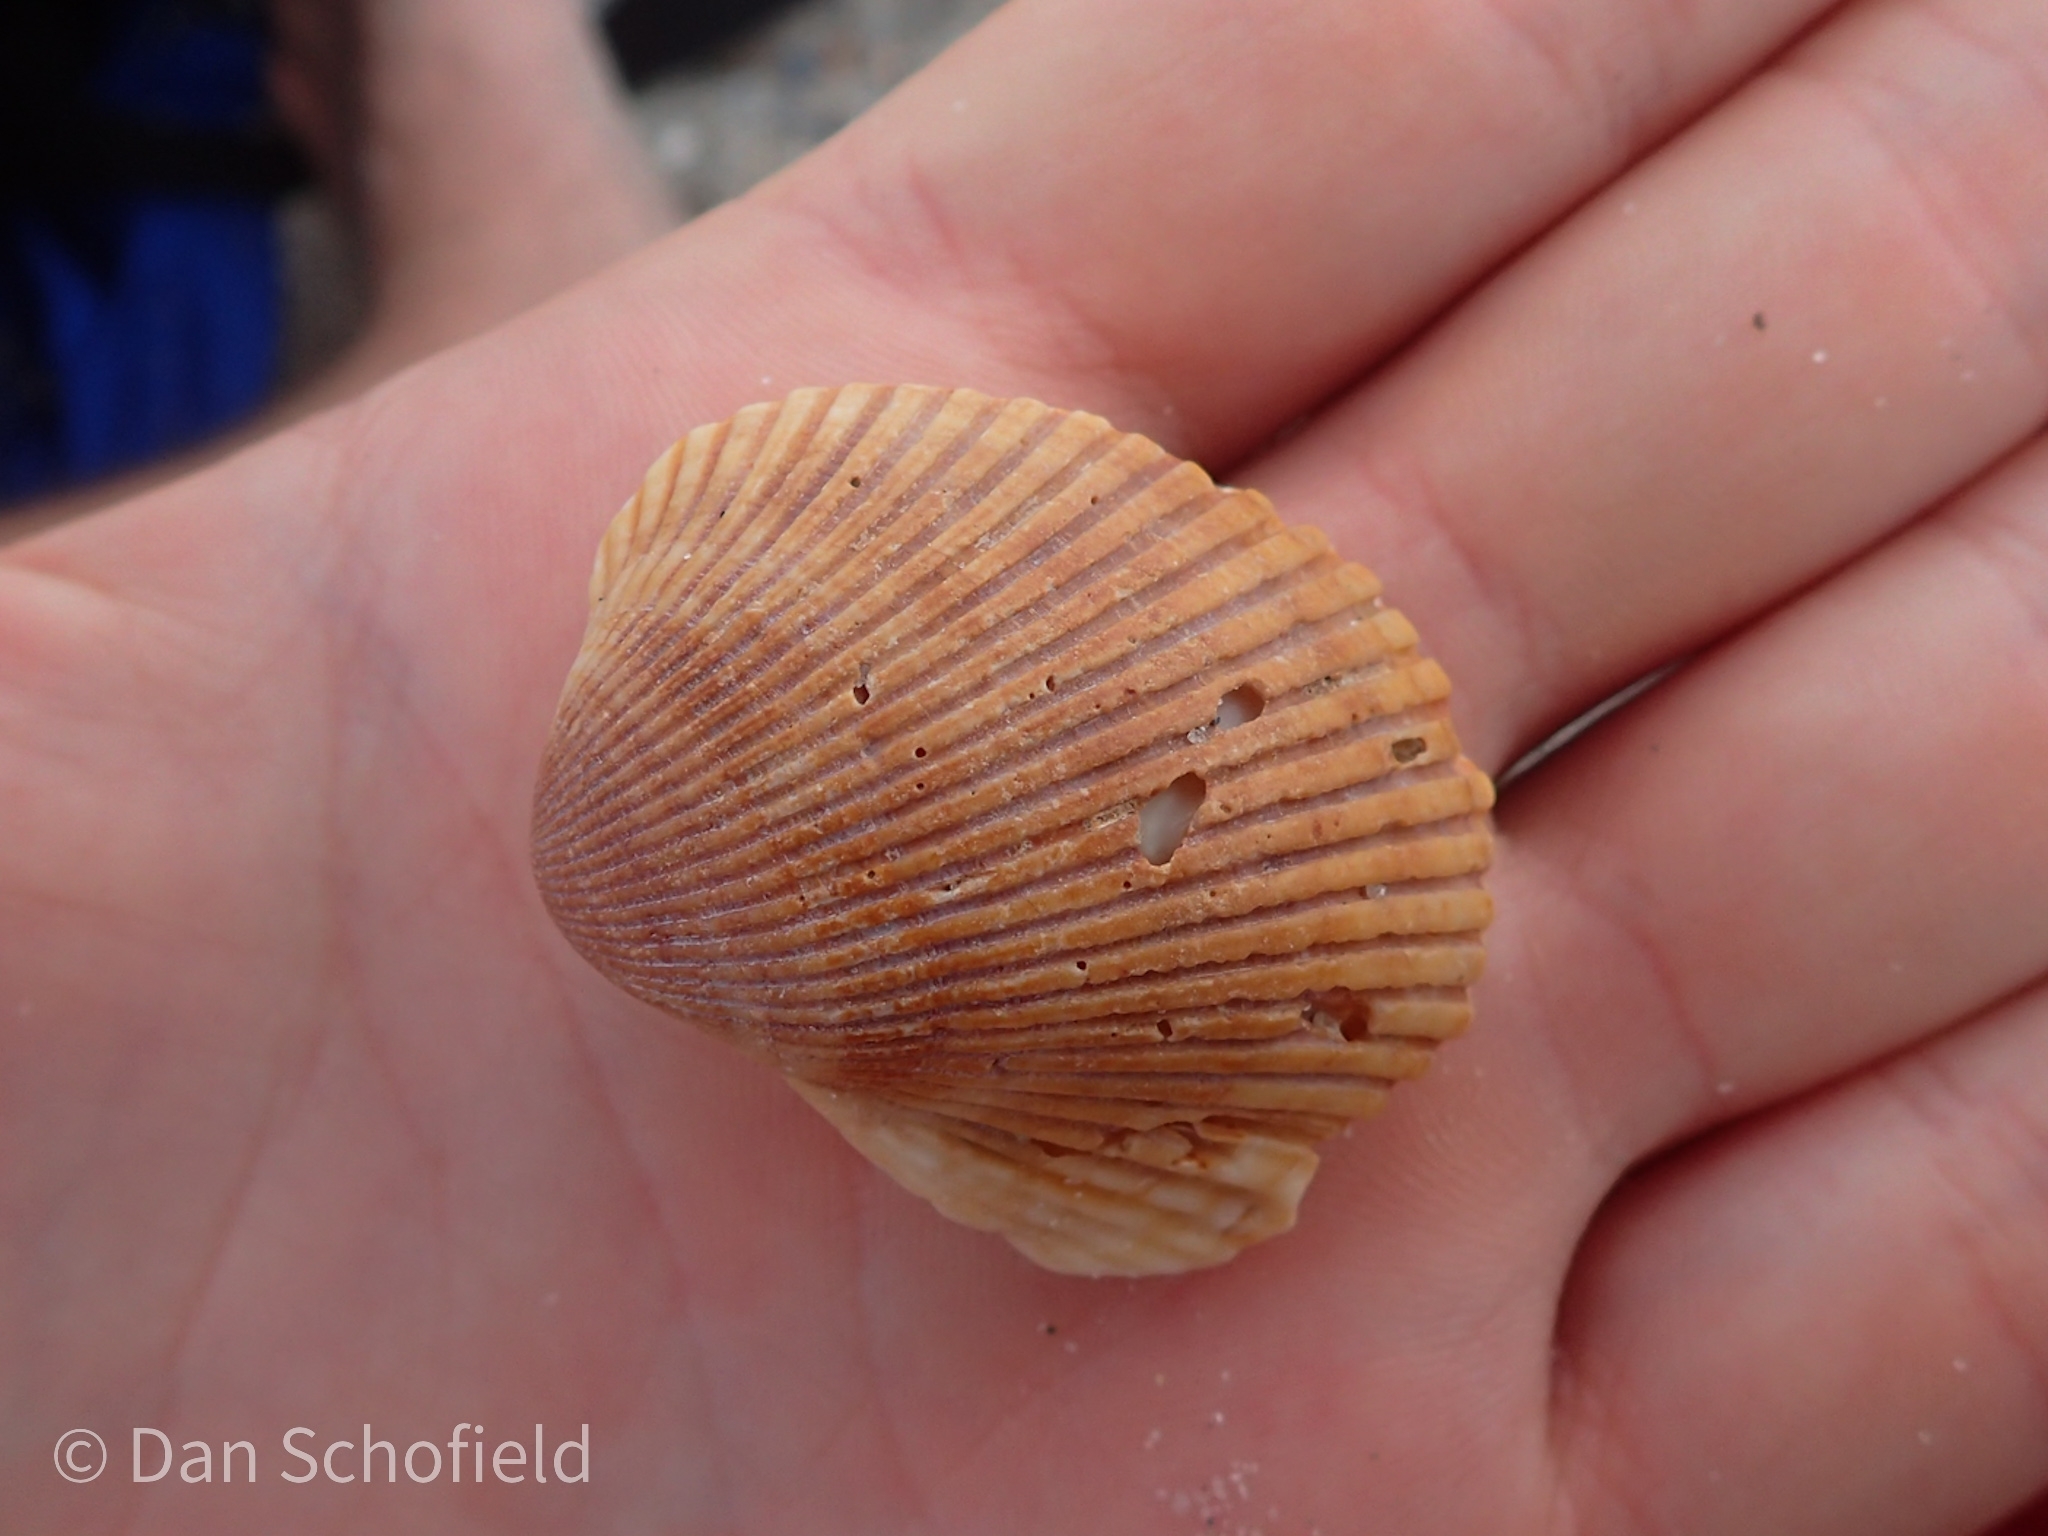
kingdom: Animalia
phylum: Mollusca
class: Bivalvia
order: Arcida
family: Arcidae
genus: Lunarca
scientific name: Lunarca ovalis
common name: Blood ark
